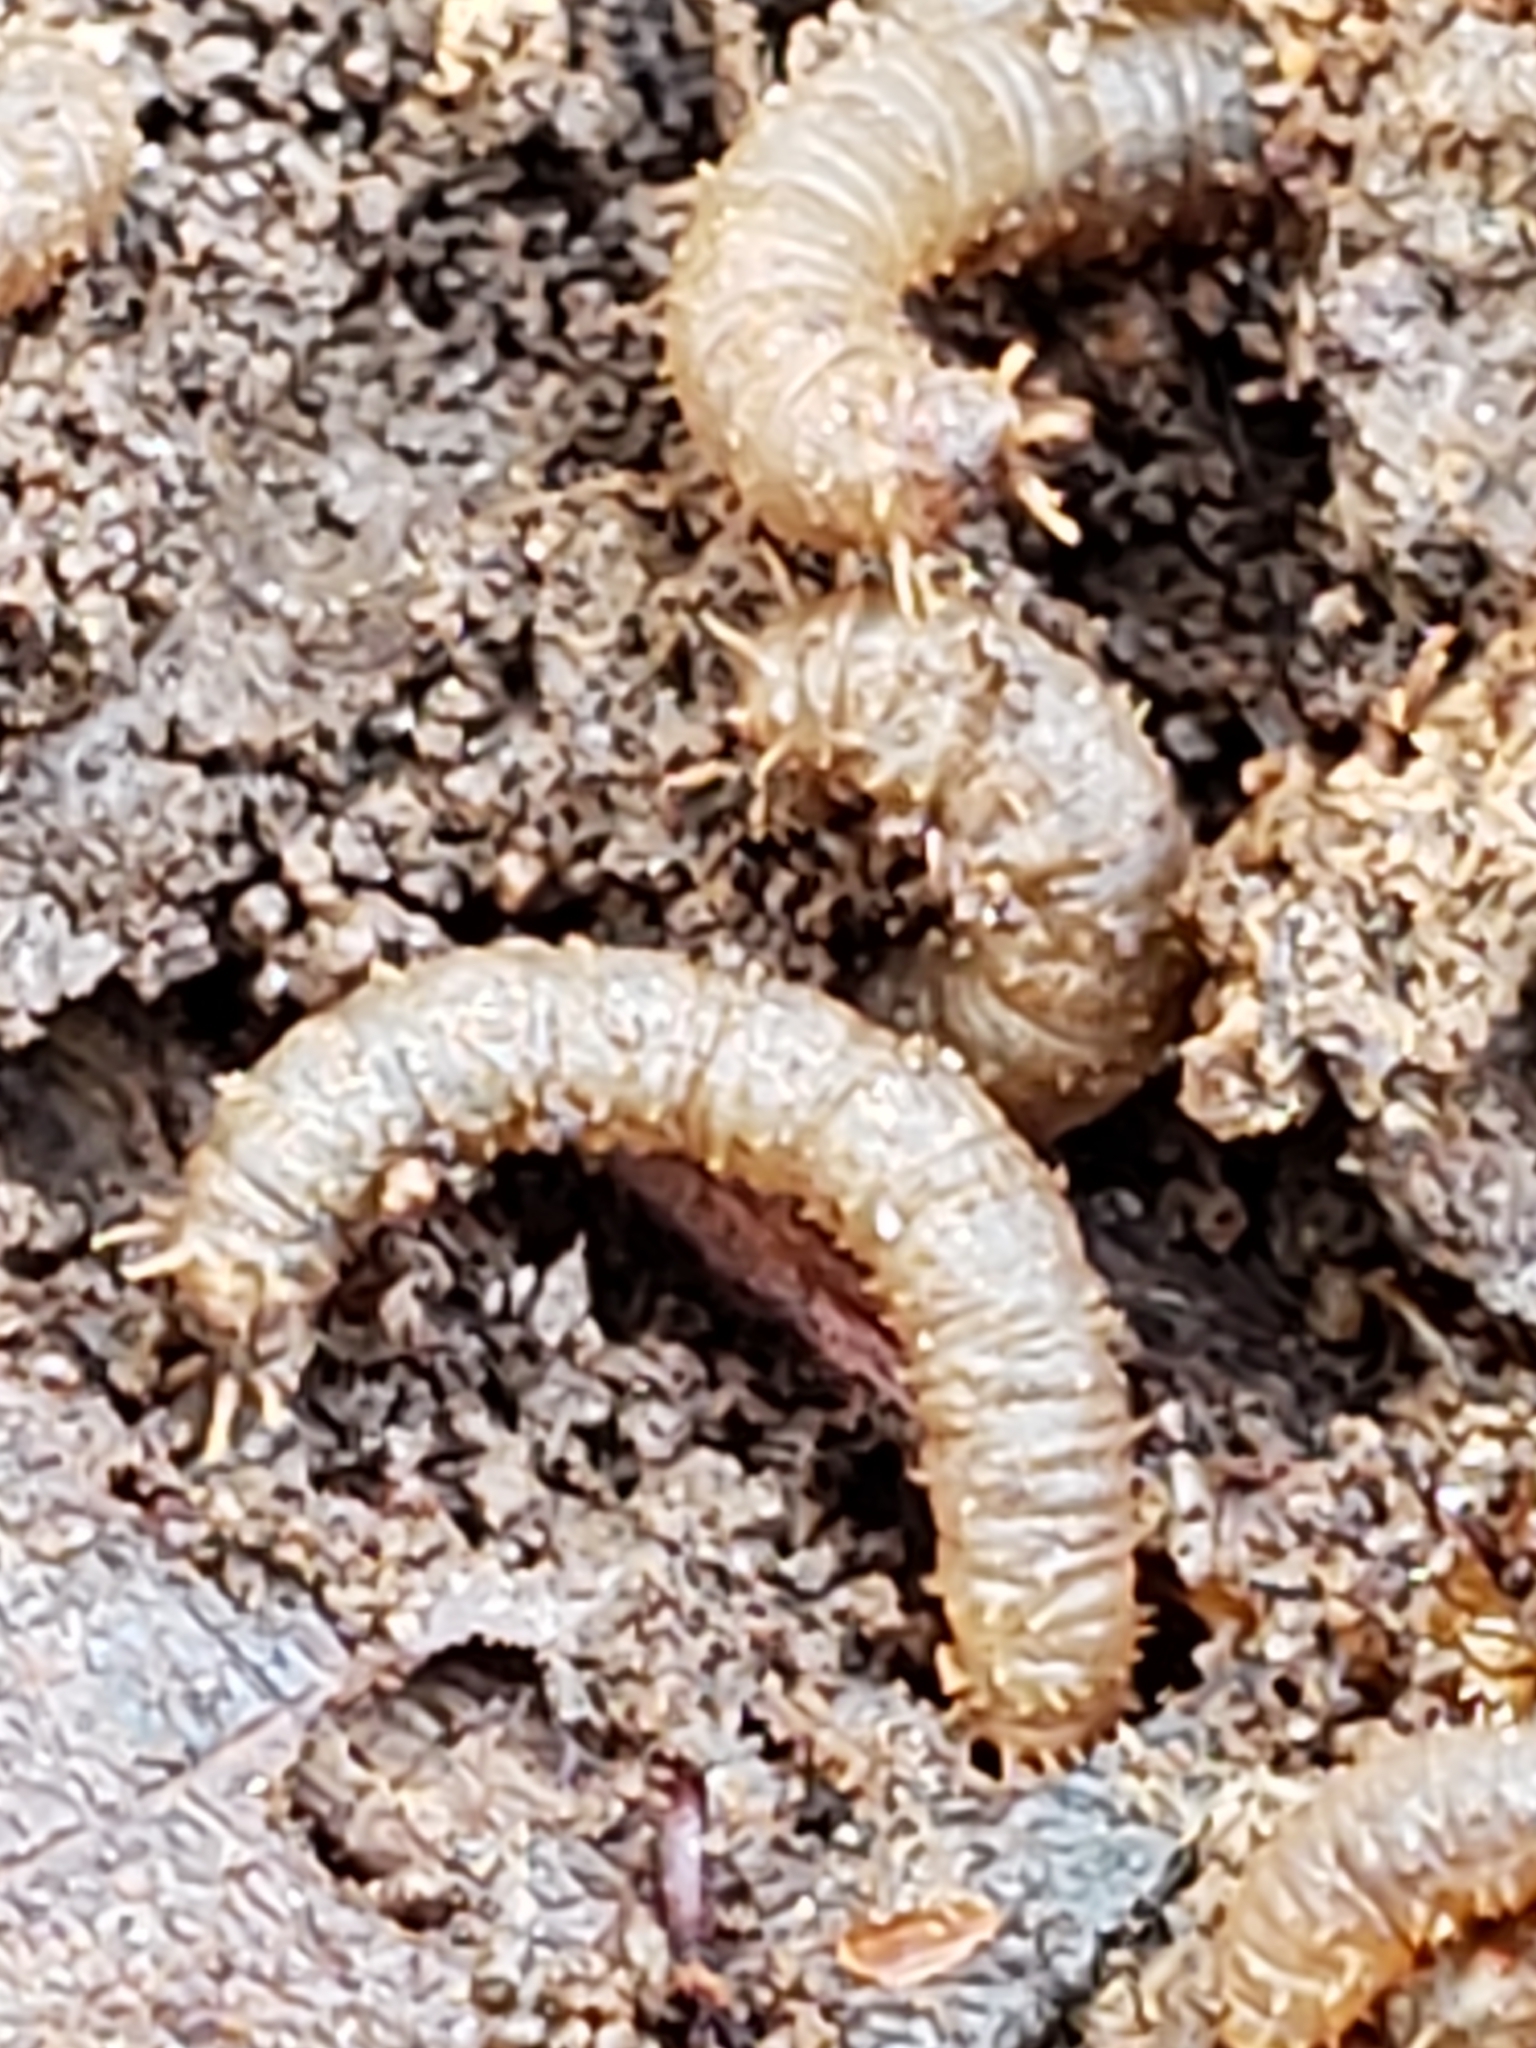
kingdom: Animalia
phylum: Arthropoda
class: Insecta
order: Diptera
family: Bibionidae
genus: Bibio
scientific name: Bibio
